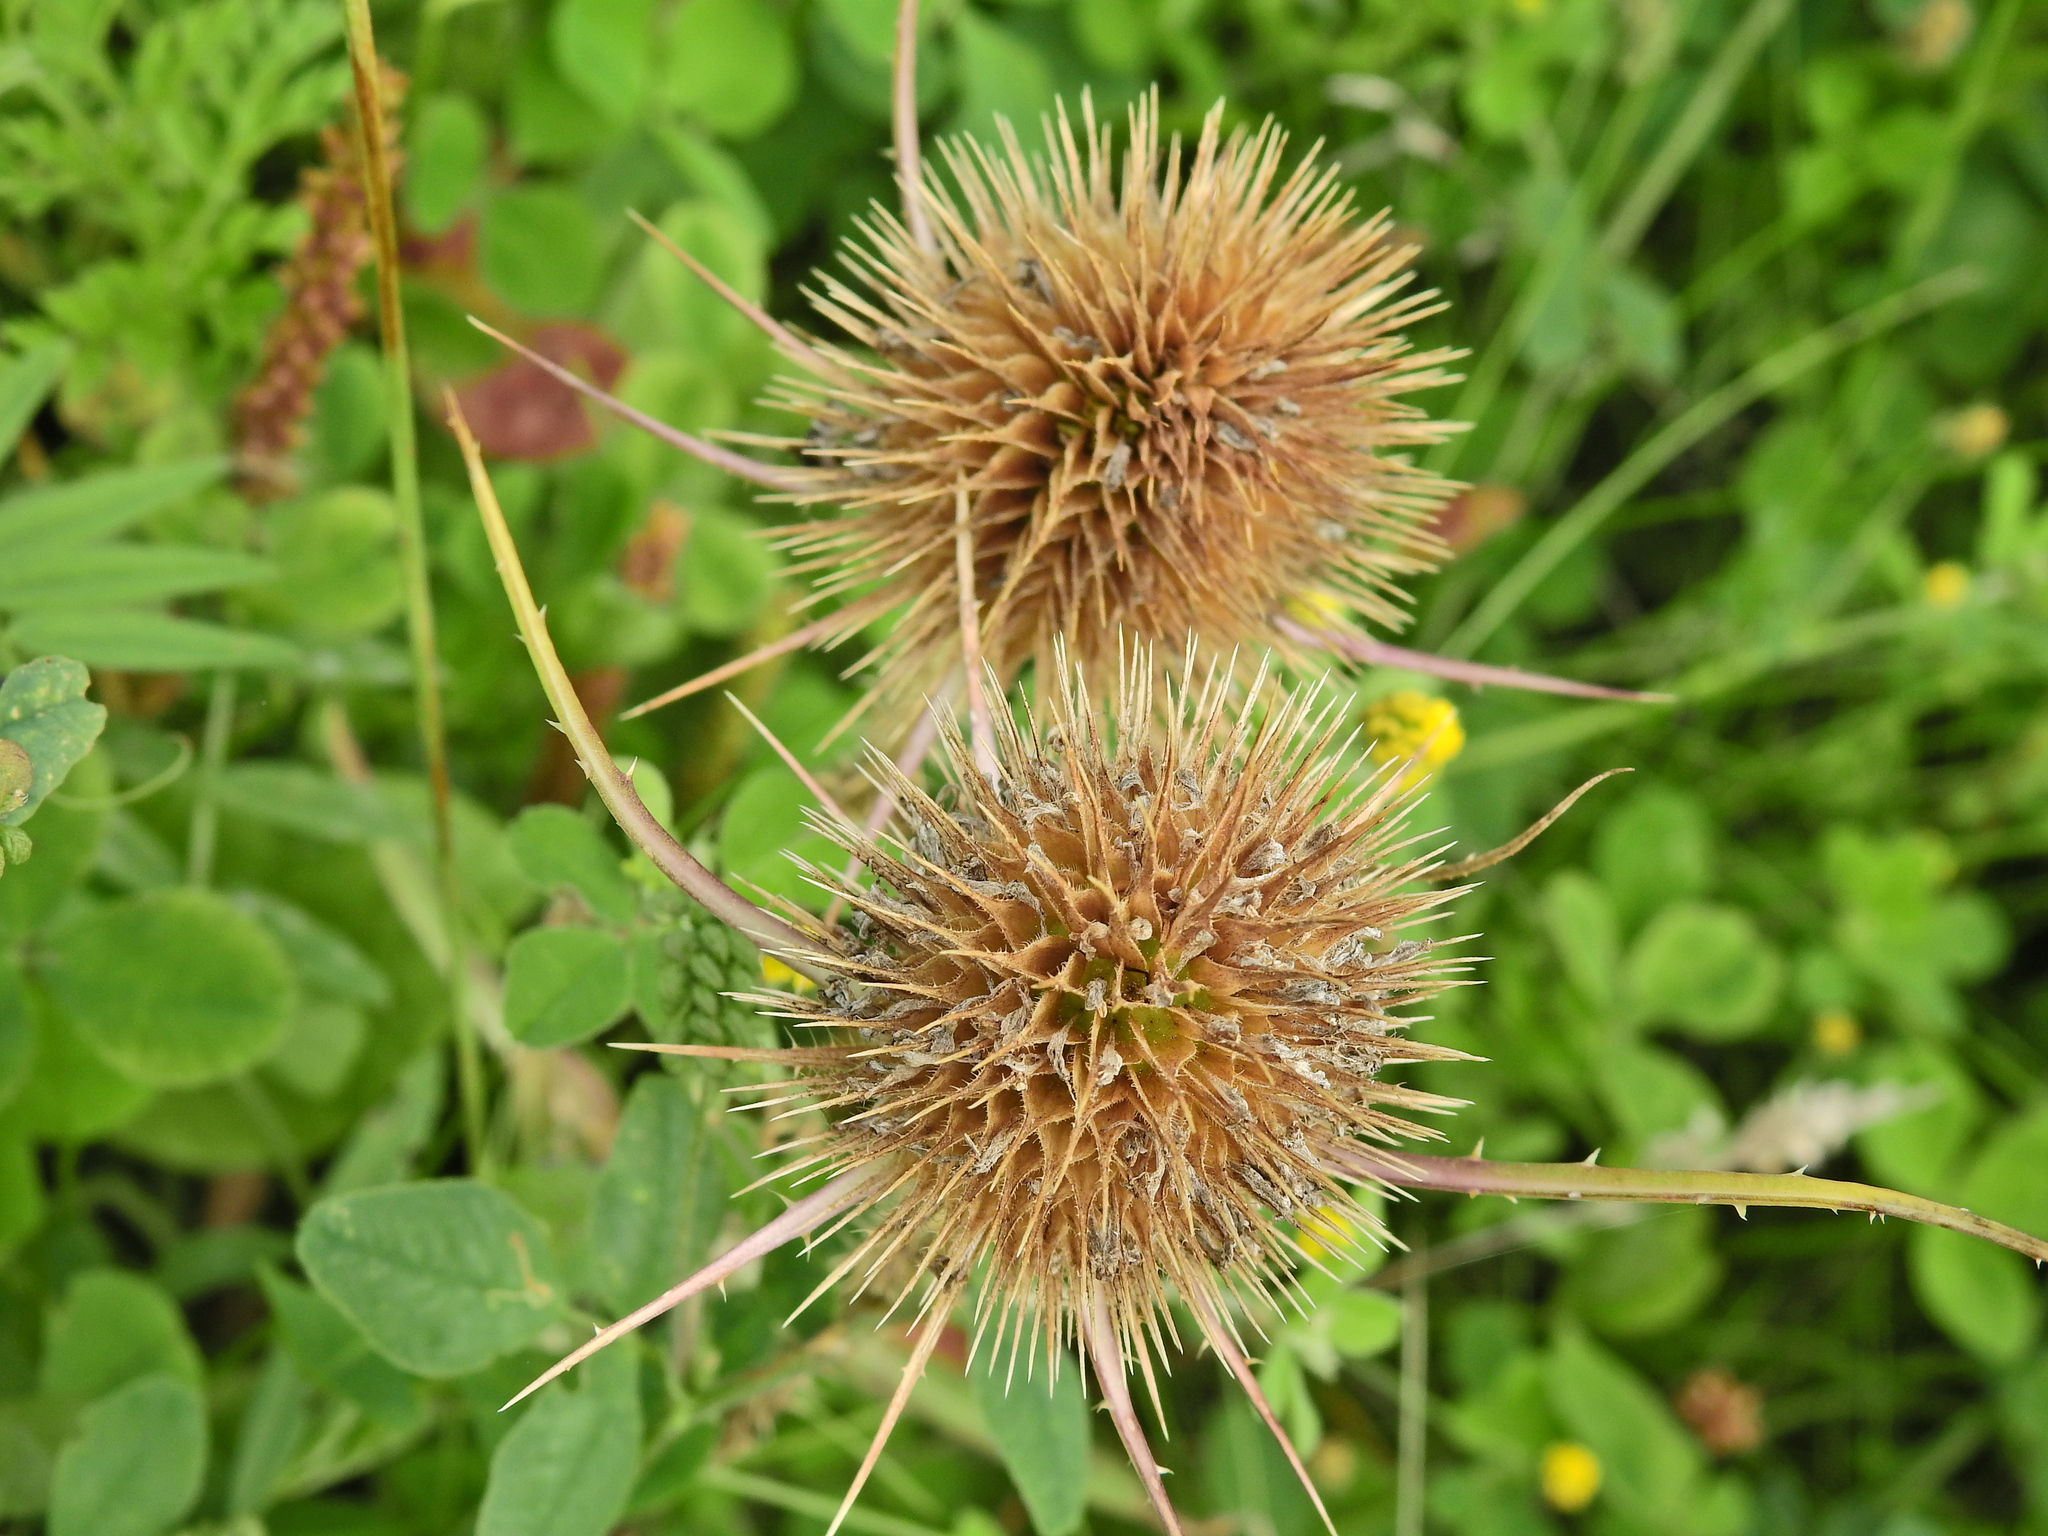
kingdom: Plantae
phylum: Tracheophyta
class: Magnoliopsida
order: Dipsacales
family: Caprifoliaceae
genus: Dipsacus
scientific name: Dipsacus fullonum
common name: Teasel
